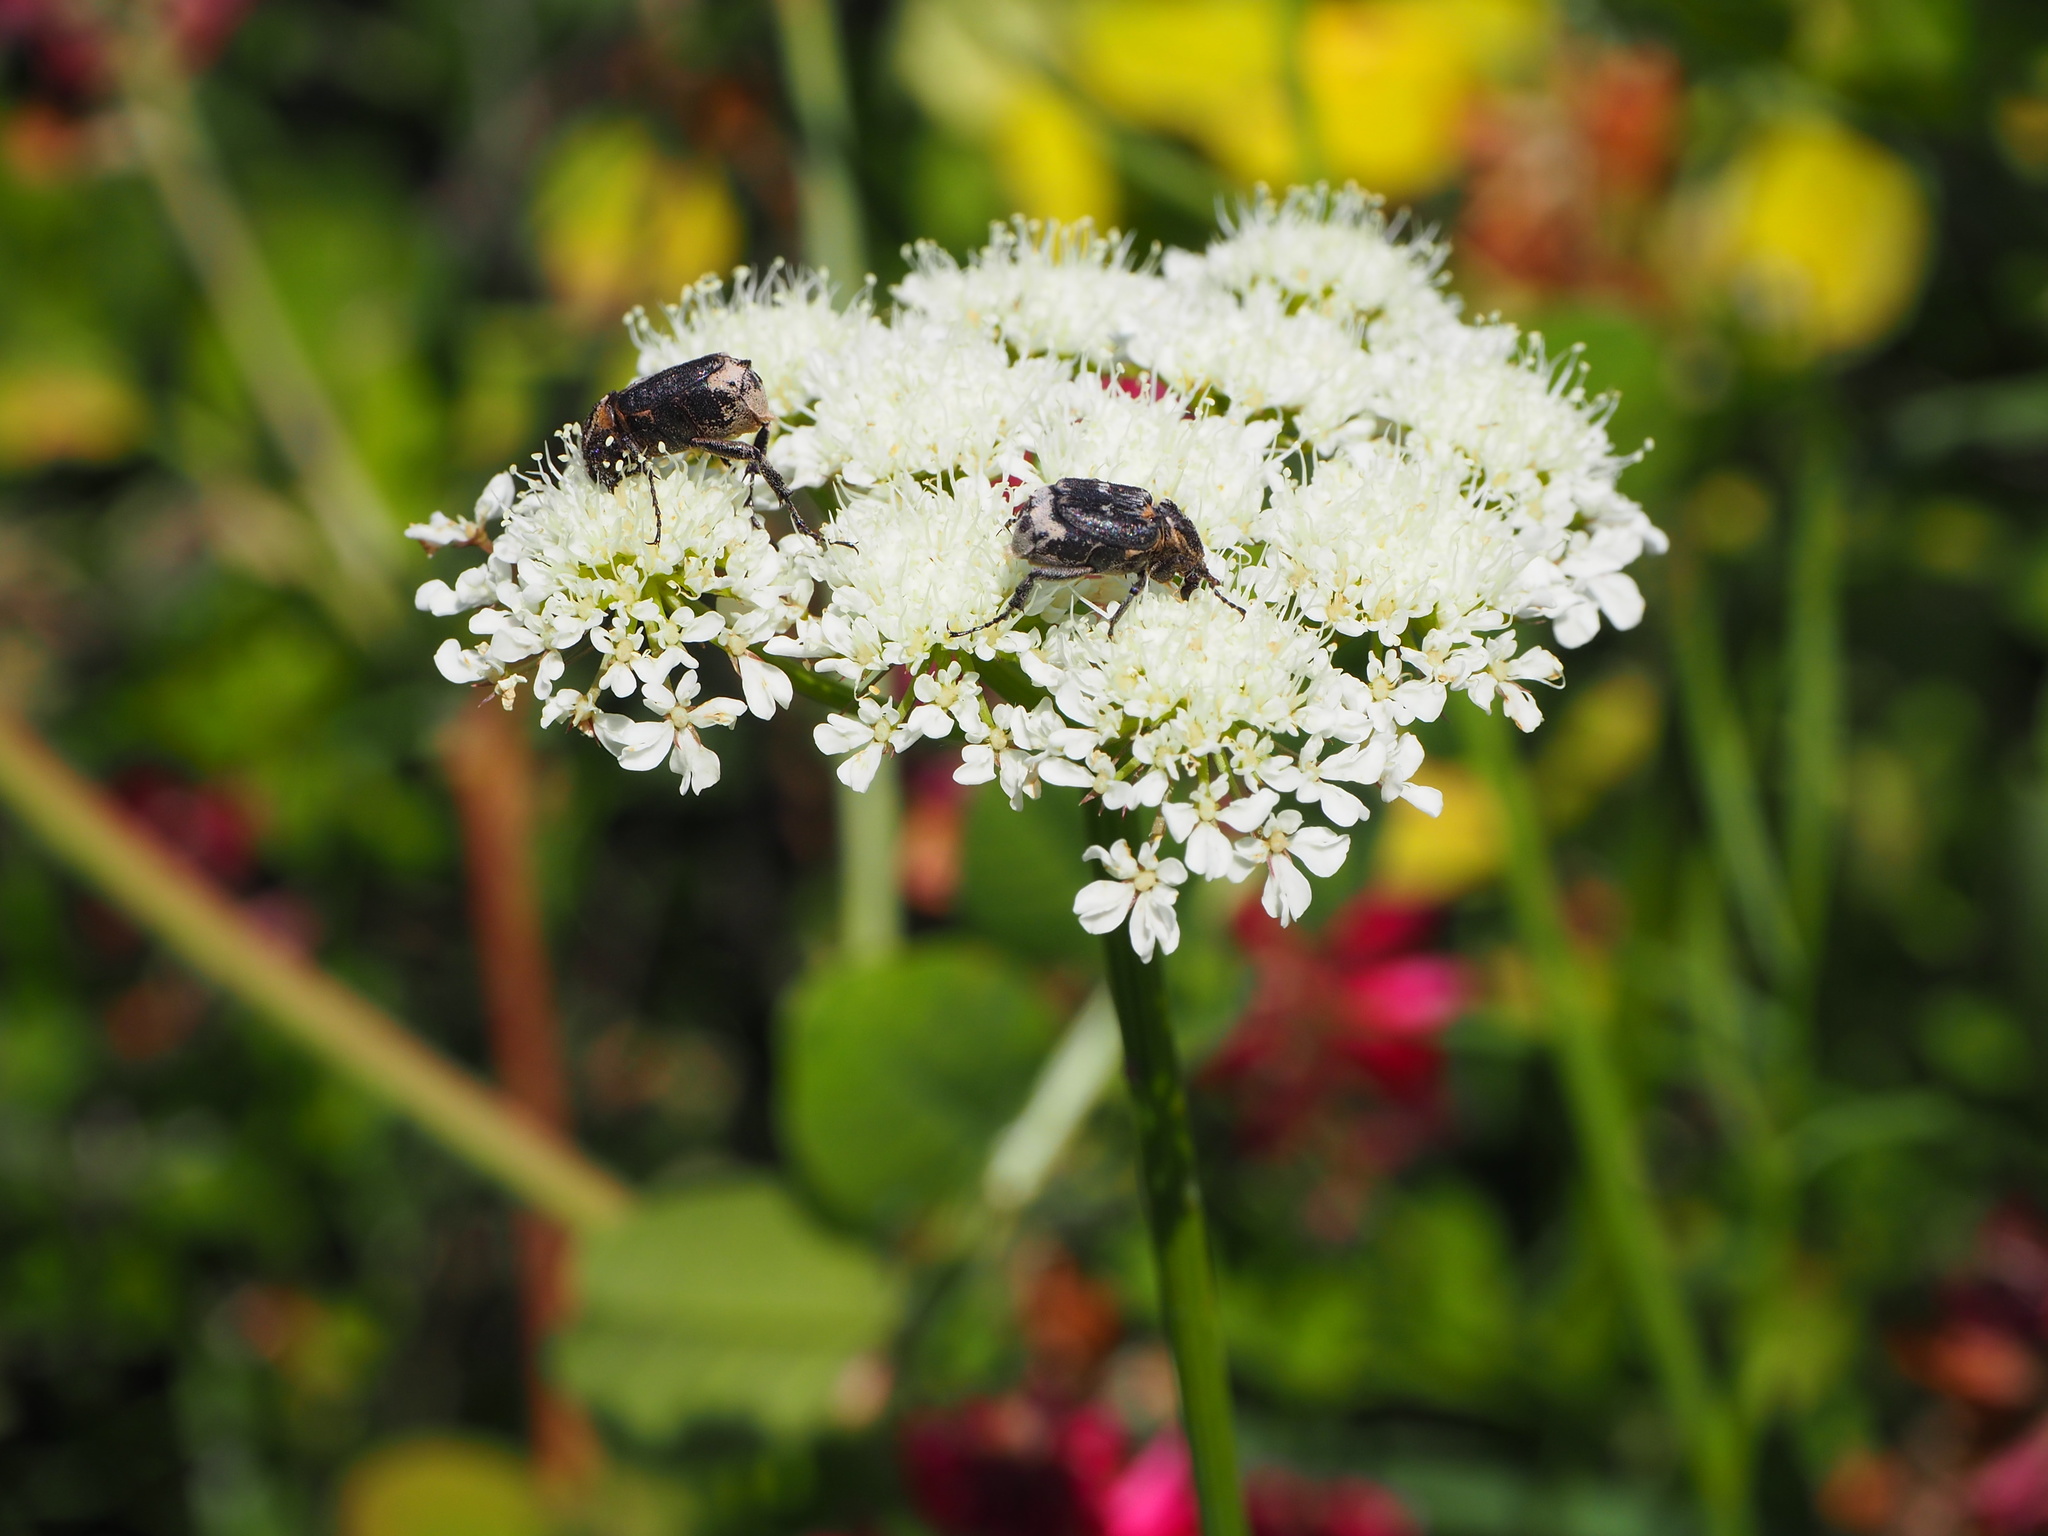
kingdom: Animalia
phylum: Arthropoda
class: Insecta
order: Coleoptera
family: Scarabaeidae
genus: Valgus
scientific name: Valgus hemipterus
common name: Bug flower chafer
